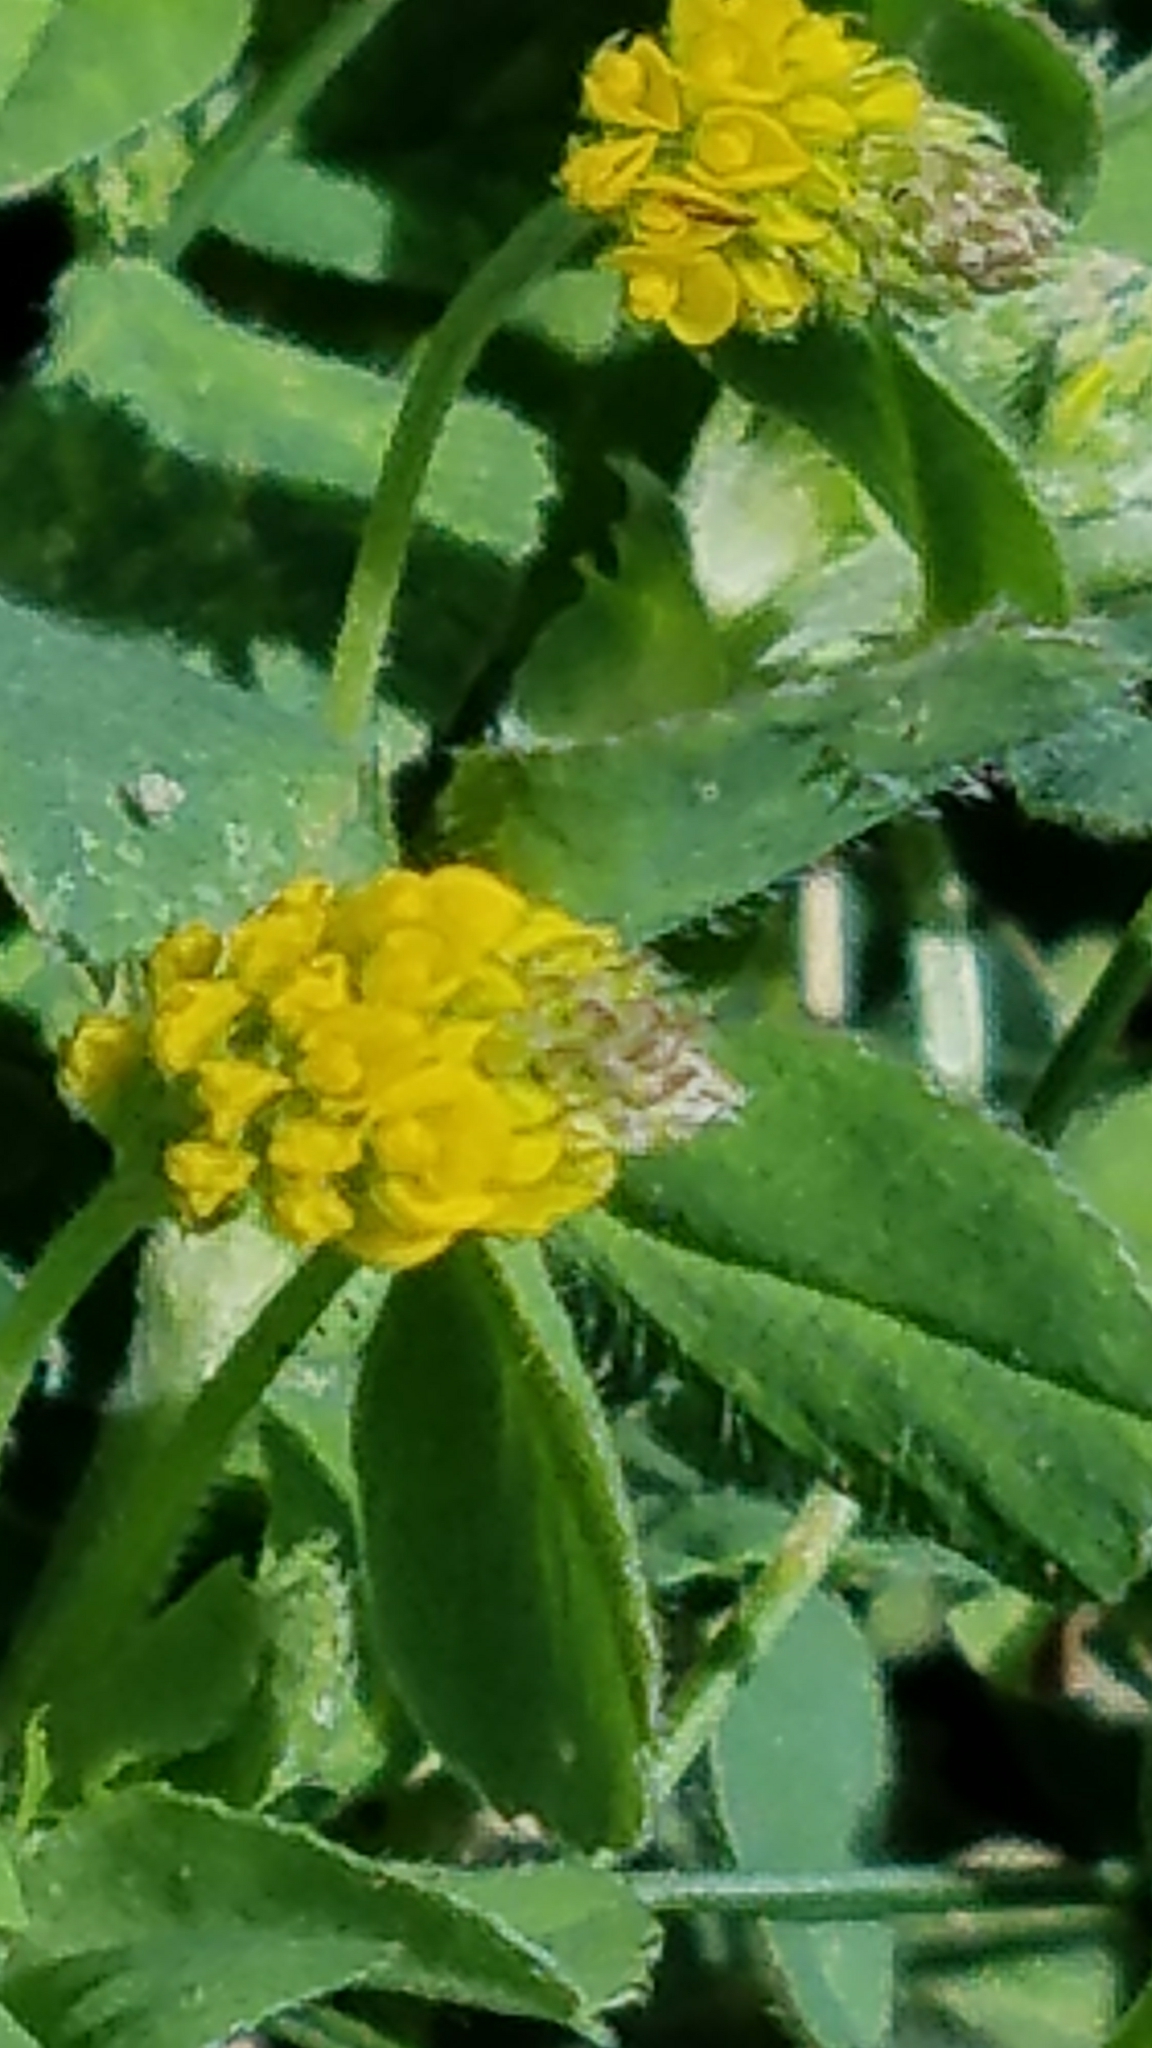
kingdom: Plantae
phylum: Tracheophyta
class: Magnoliopsida
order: Fabales
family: Fabaceae
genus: Medicago
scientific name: Medicago lupulina
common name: Black medick
